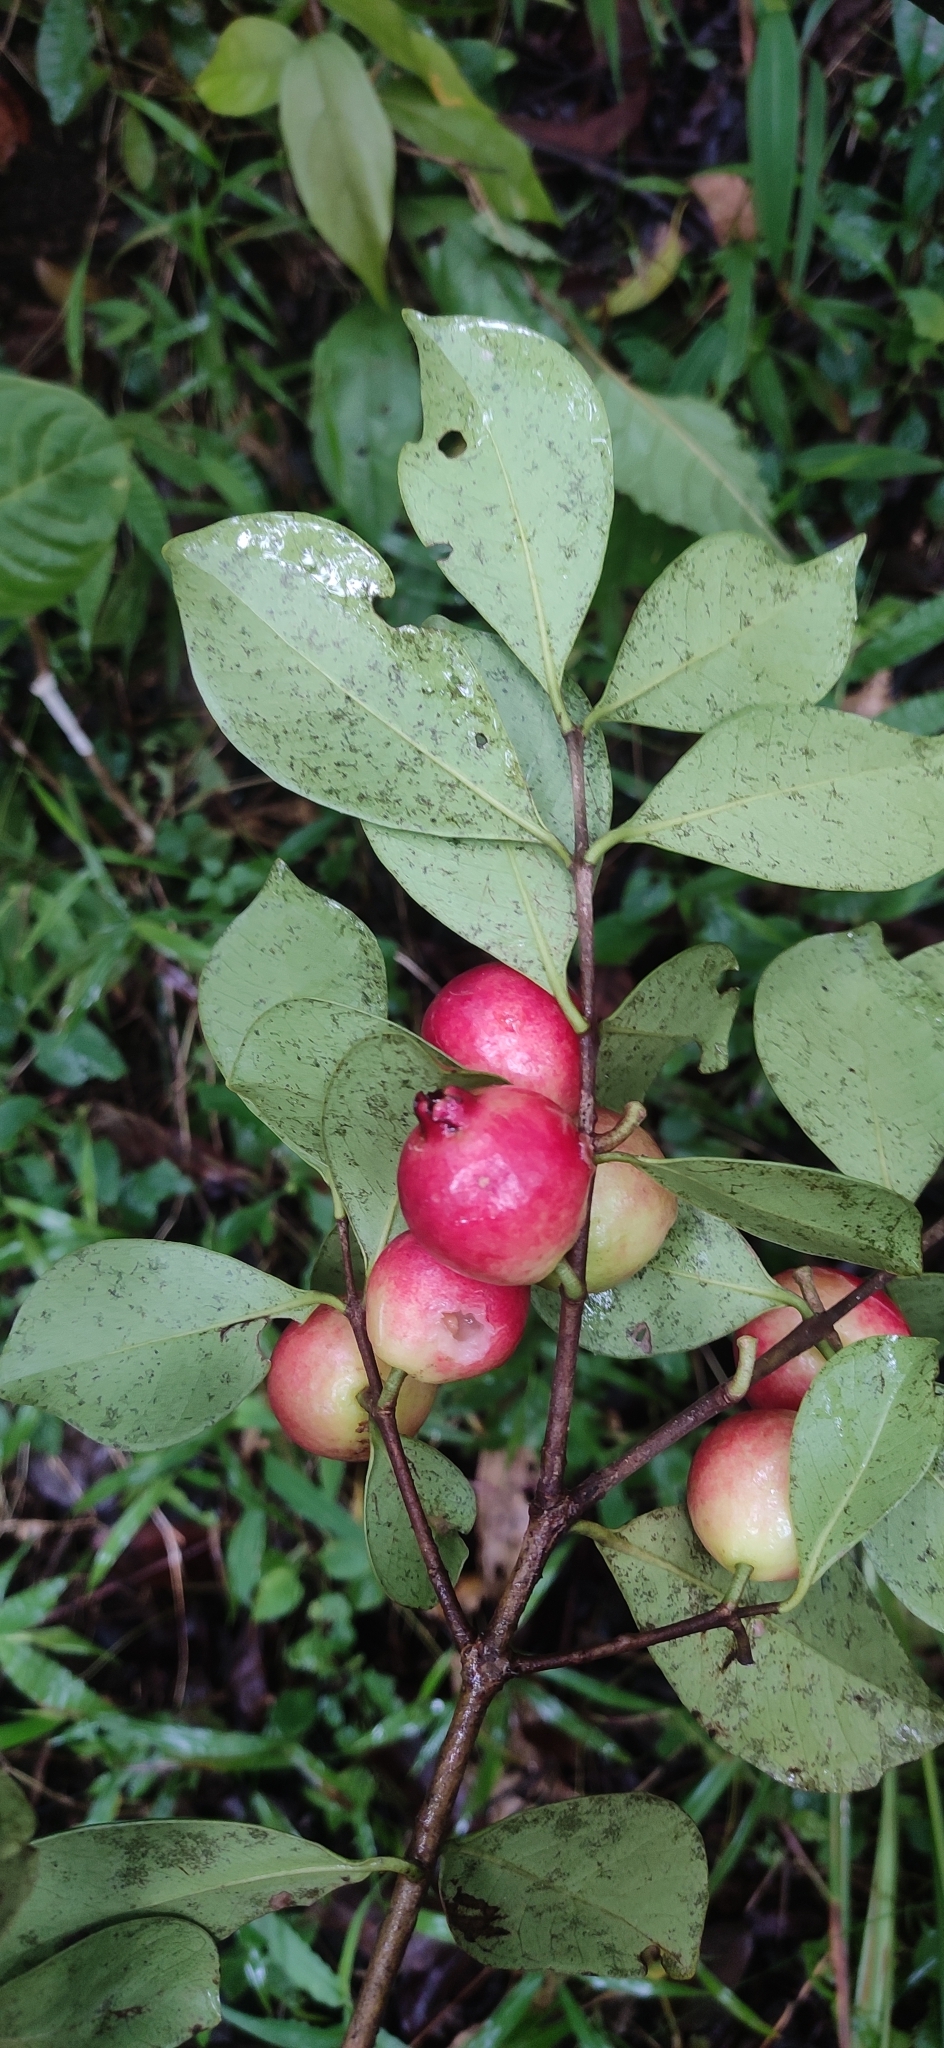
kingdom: Plantae
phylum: Tracheophyta
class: Magnoliopsida
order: Myrtales
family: Myrtaceae
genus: Psidium
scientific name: Psidium cattleianum
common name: Strawberry guava
